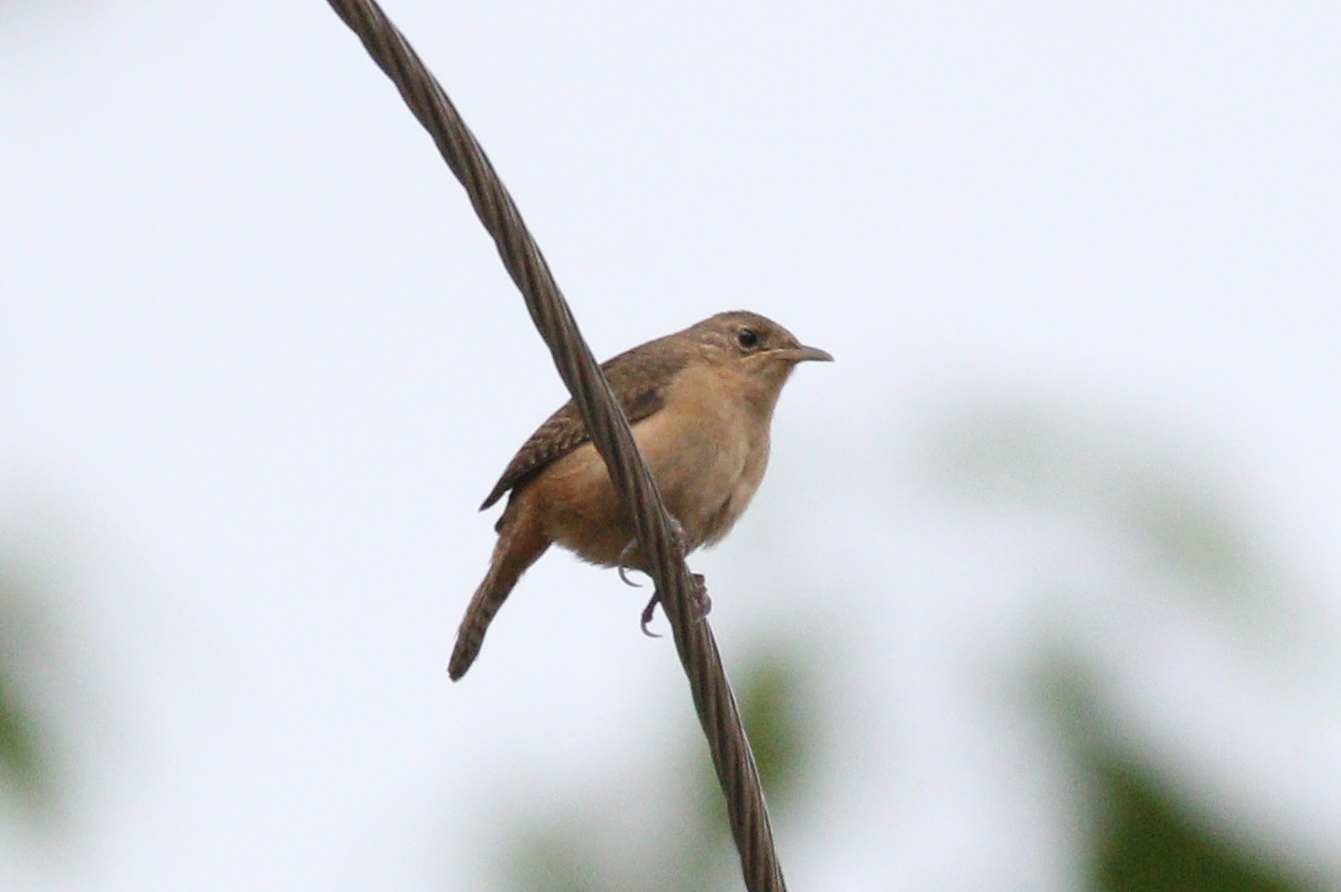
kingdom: Animalia
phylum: Chordata
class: Aves
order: Passeriformes
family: Troglodytidae
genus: Troglodytes
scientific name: Troglodytes aedon
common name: House wren
